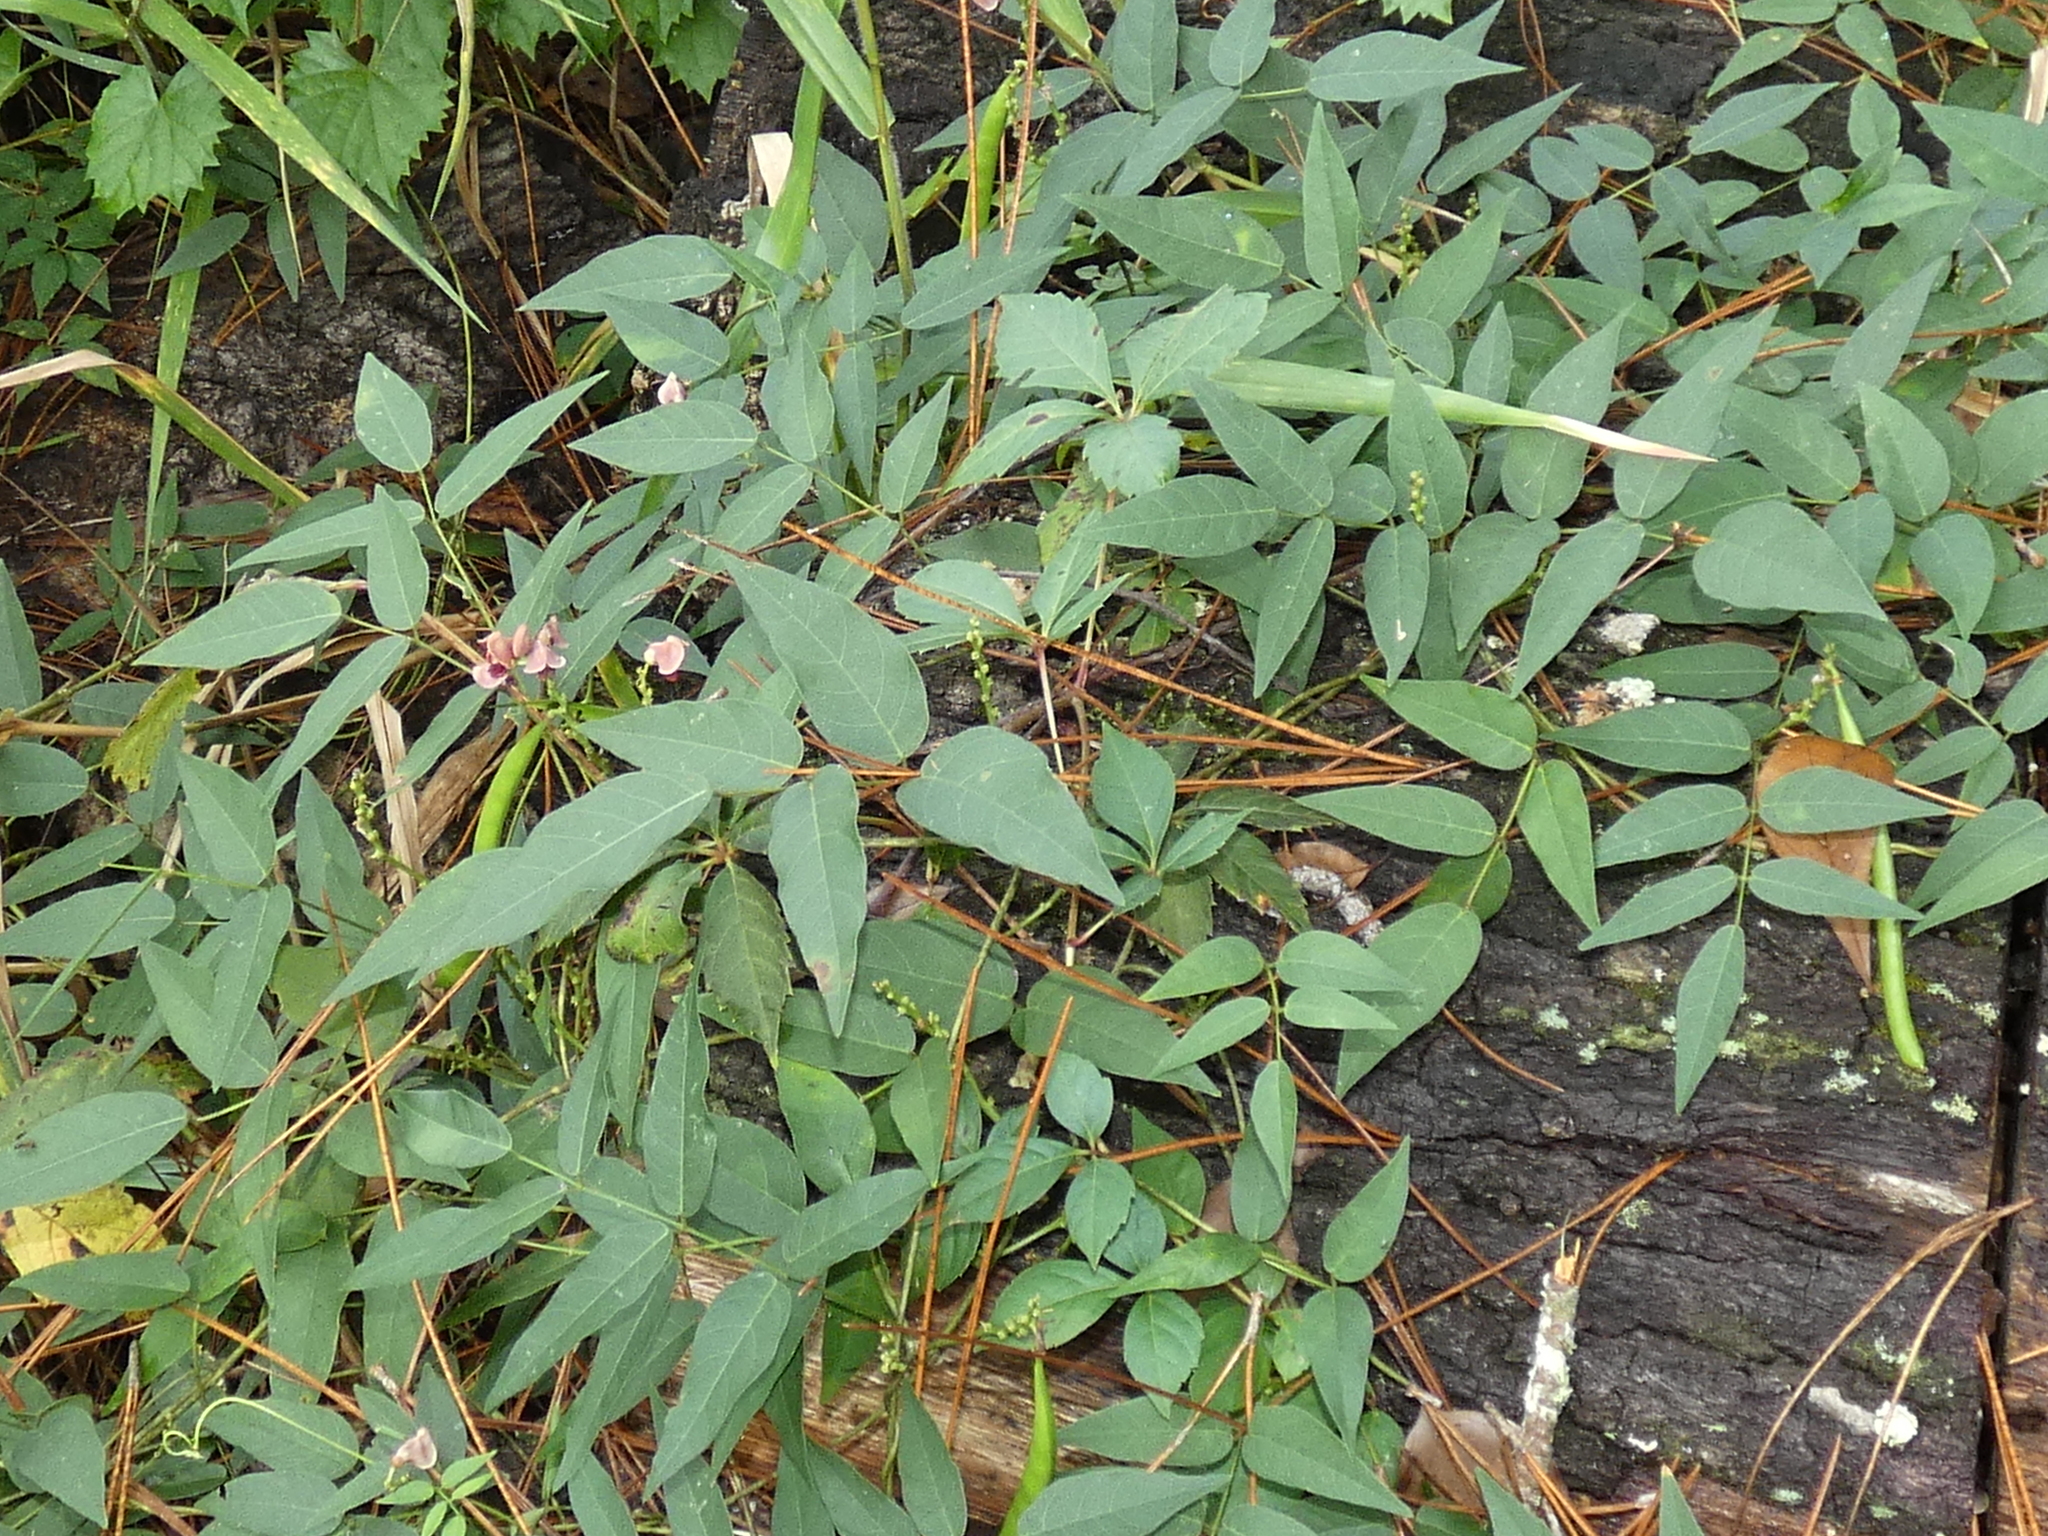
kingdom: Plantae
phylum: Tracheophyta
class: Magnoliopsida
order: Fabales
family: Fabaceae
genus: Apios
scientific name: Apios americana
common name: American potato-bean
